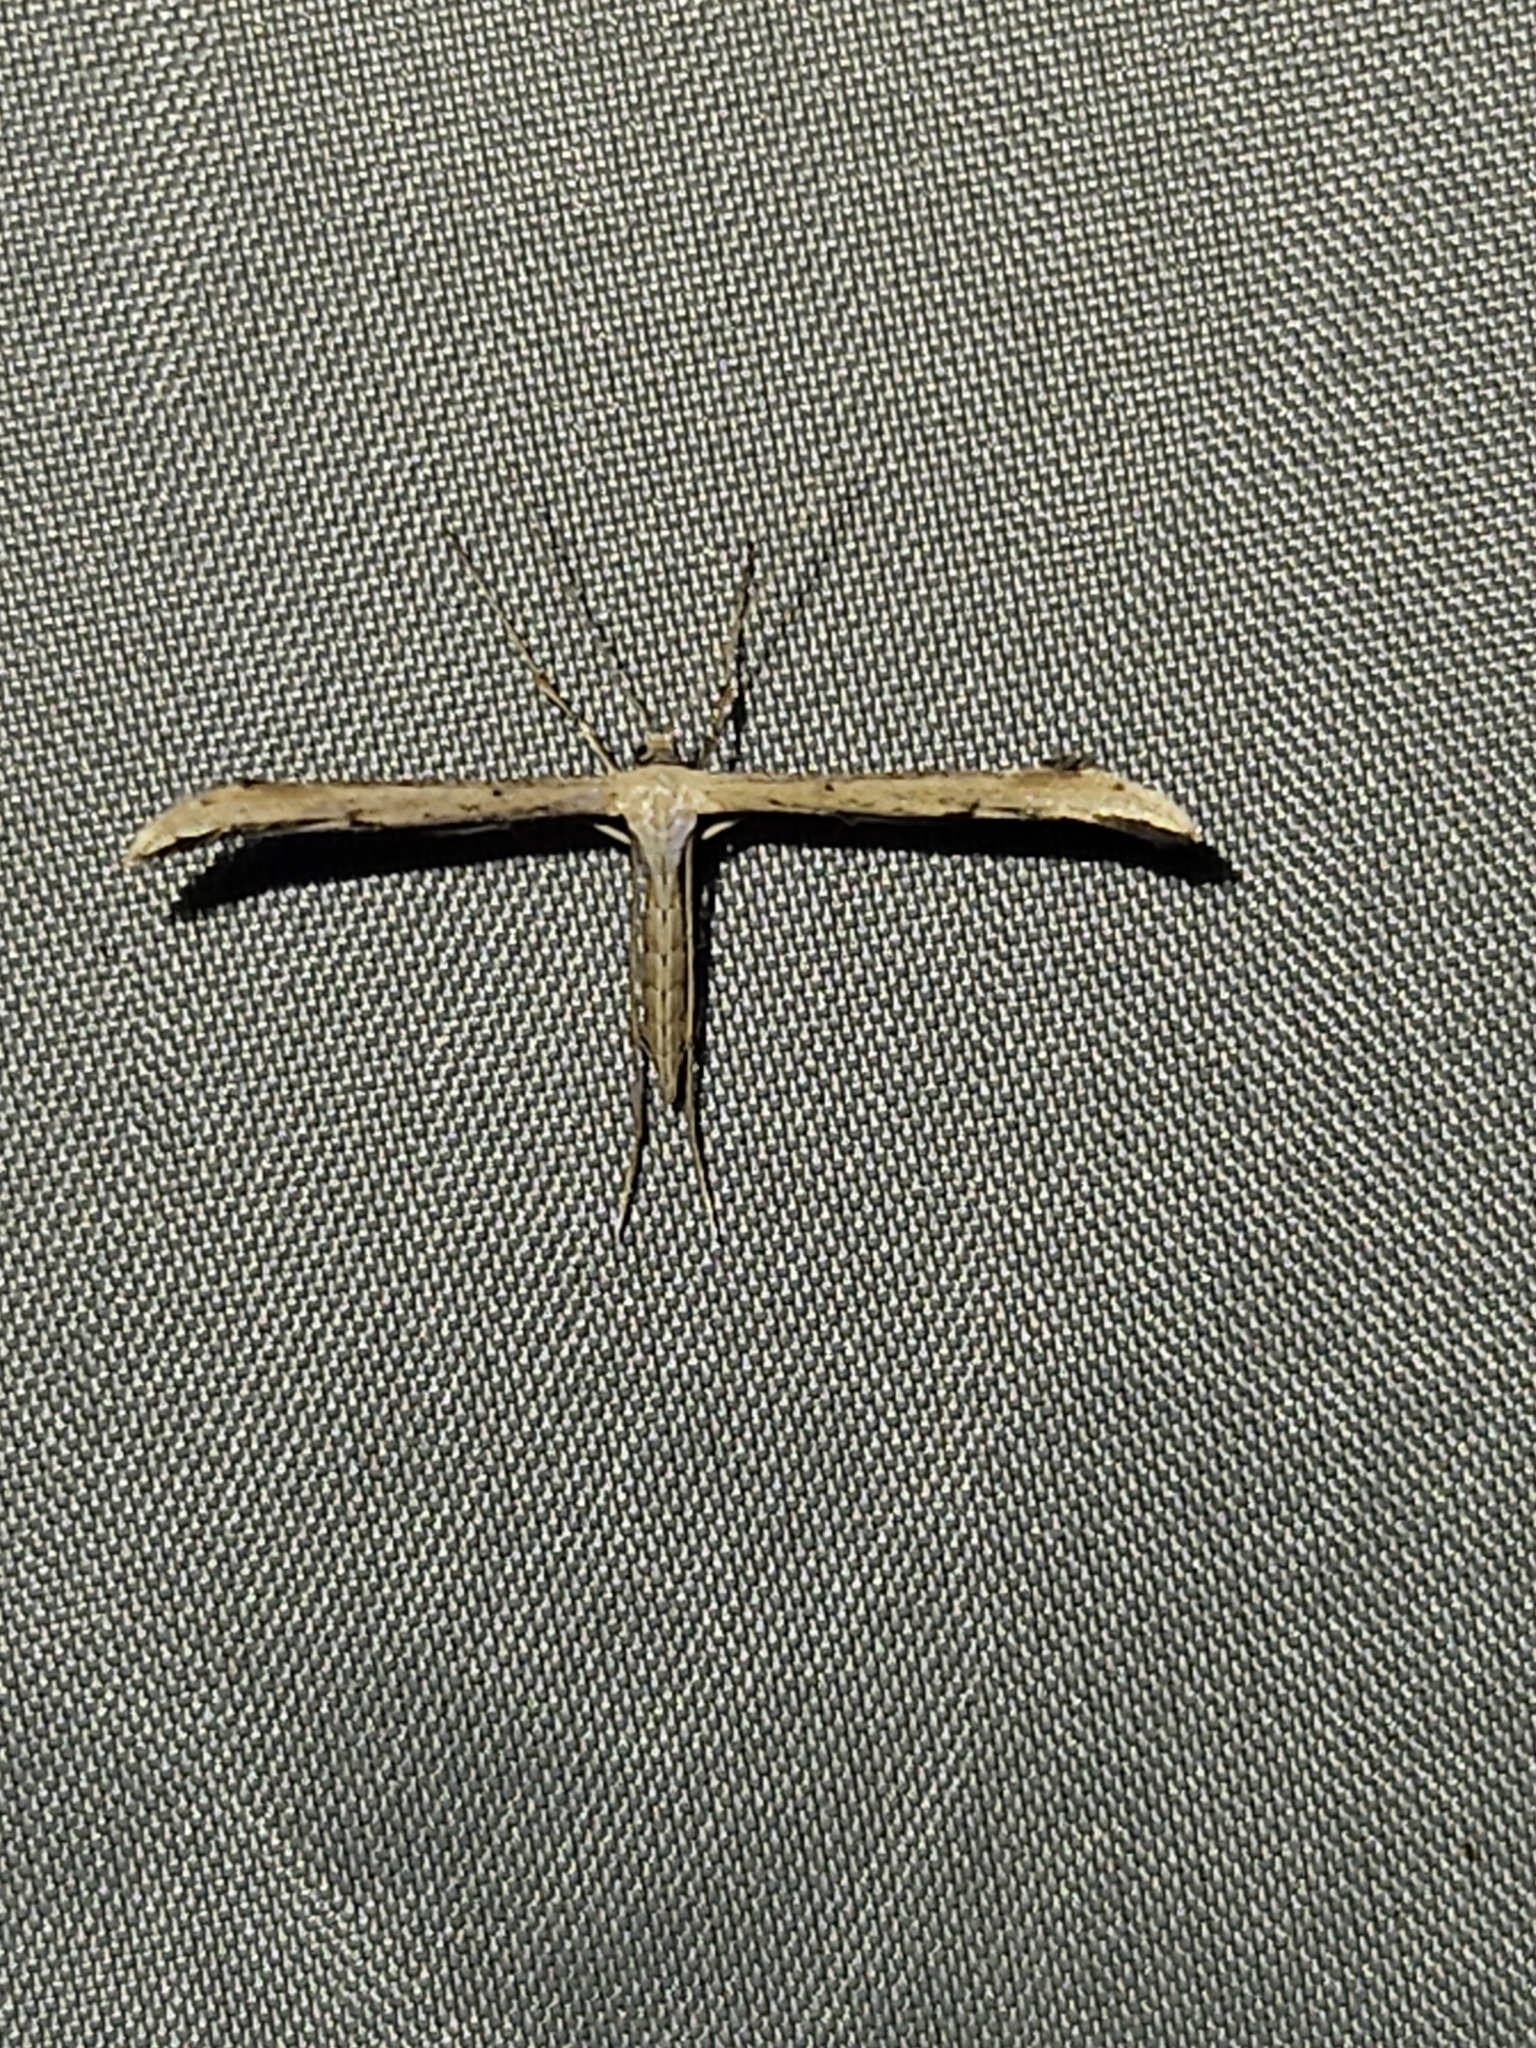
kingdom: Animalia
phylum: Arthropoda
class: Insecta
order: Lepidoptera
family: Pterophoridae
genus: Emmelina
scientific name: Emmelina monodactyla
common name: Common plume
